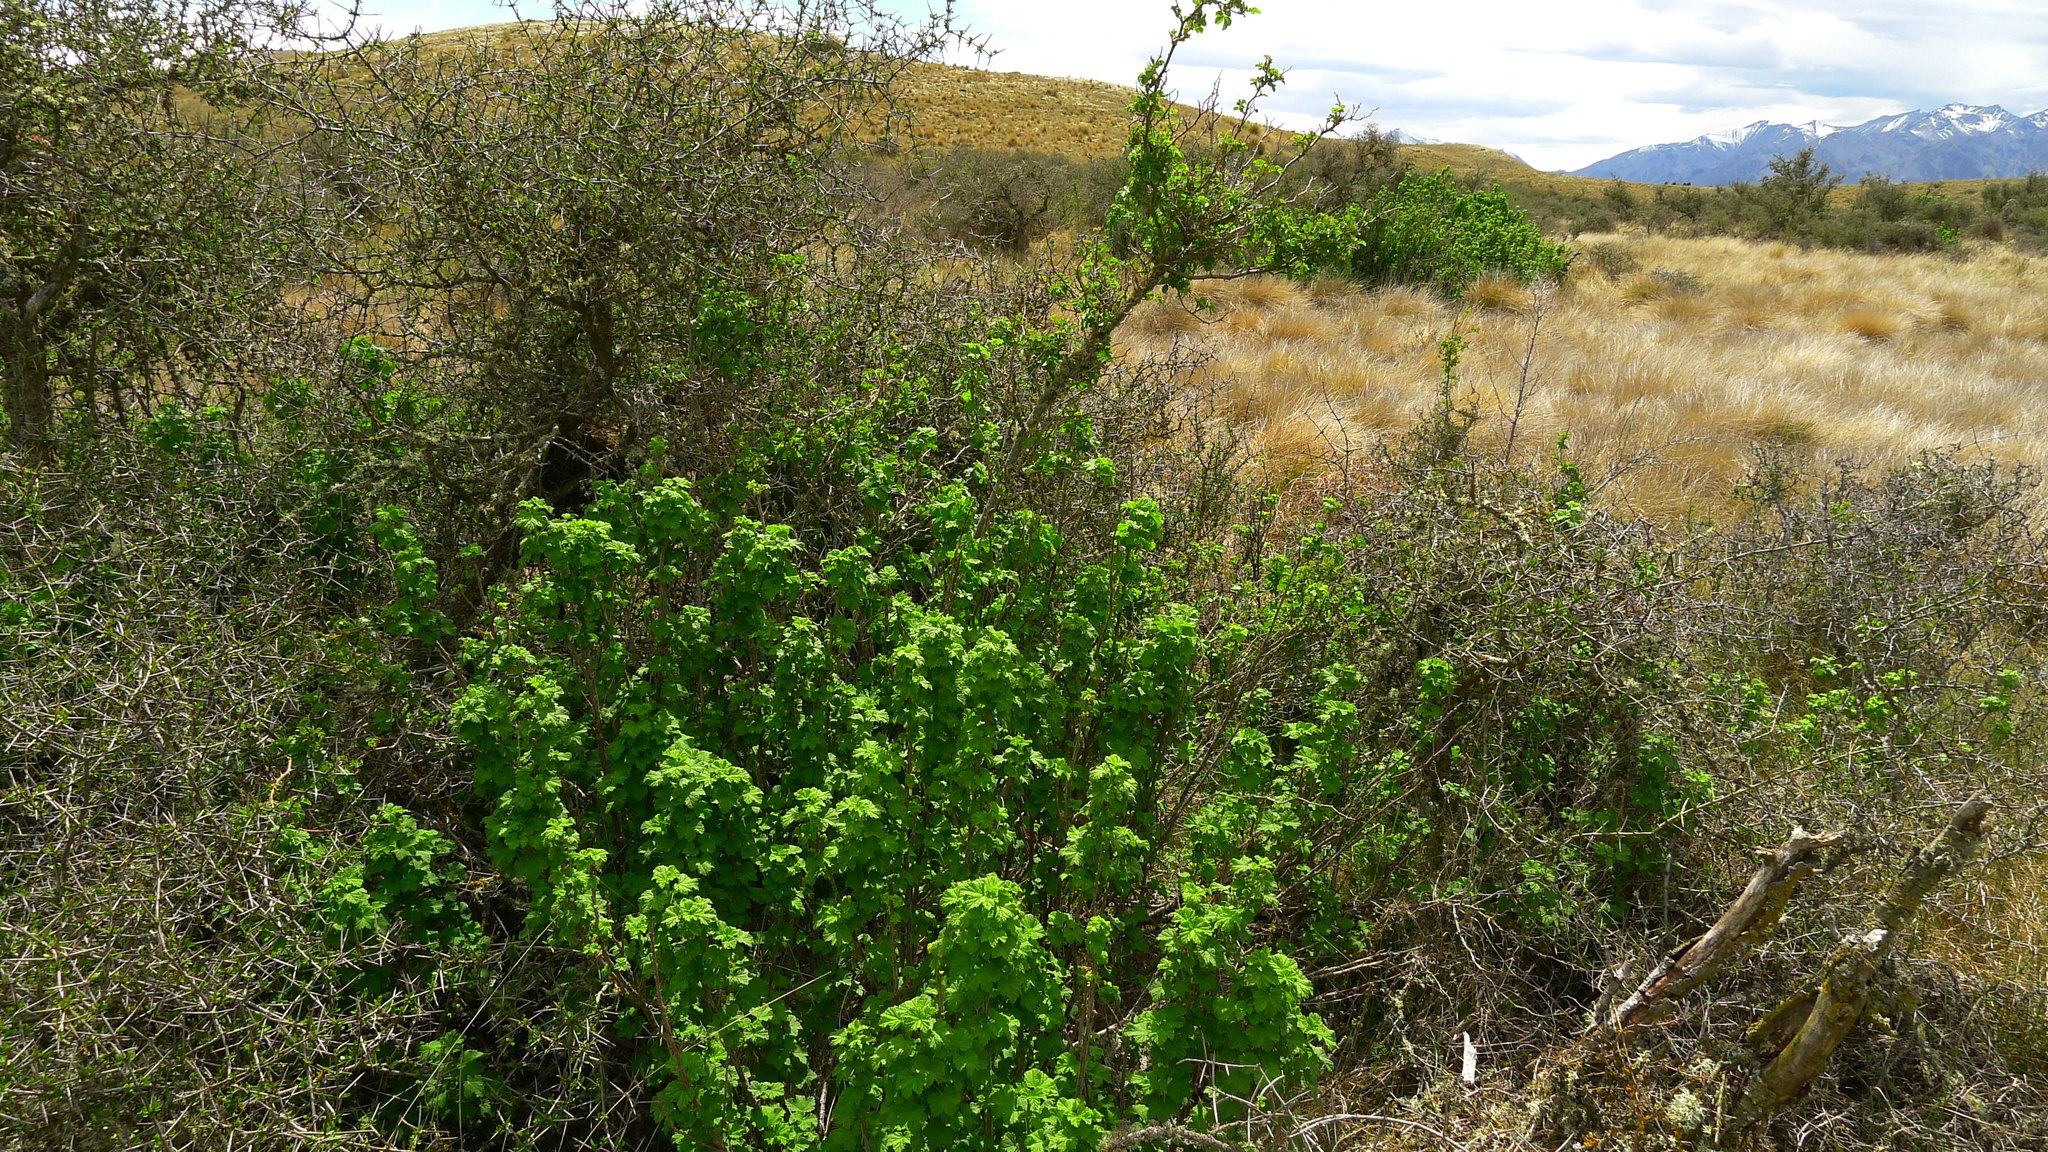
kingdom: Plantae
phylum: Tracheophyta
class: Magnoliopsida
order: Saxifragales
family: Grossulariaceae
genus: Ribes
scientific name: Ribes sanguineum
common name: Flowering currant
